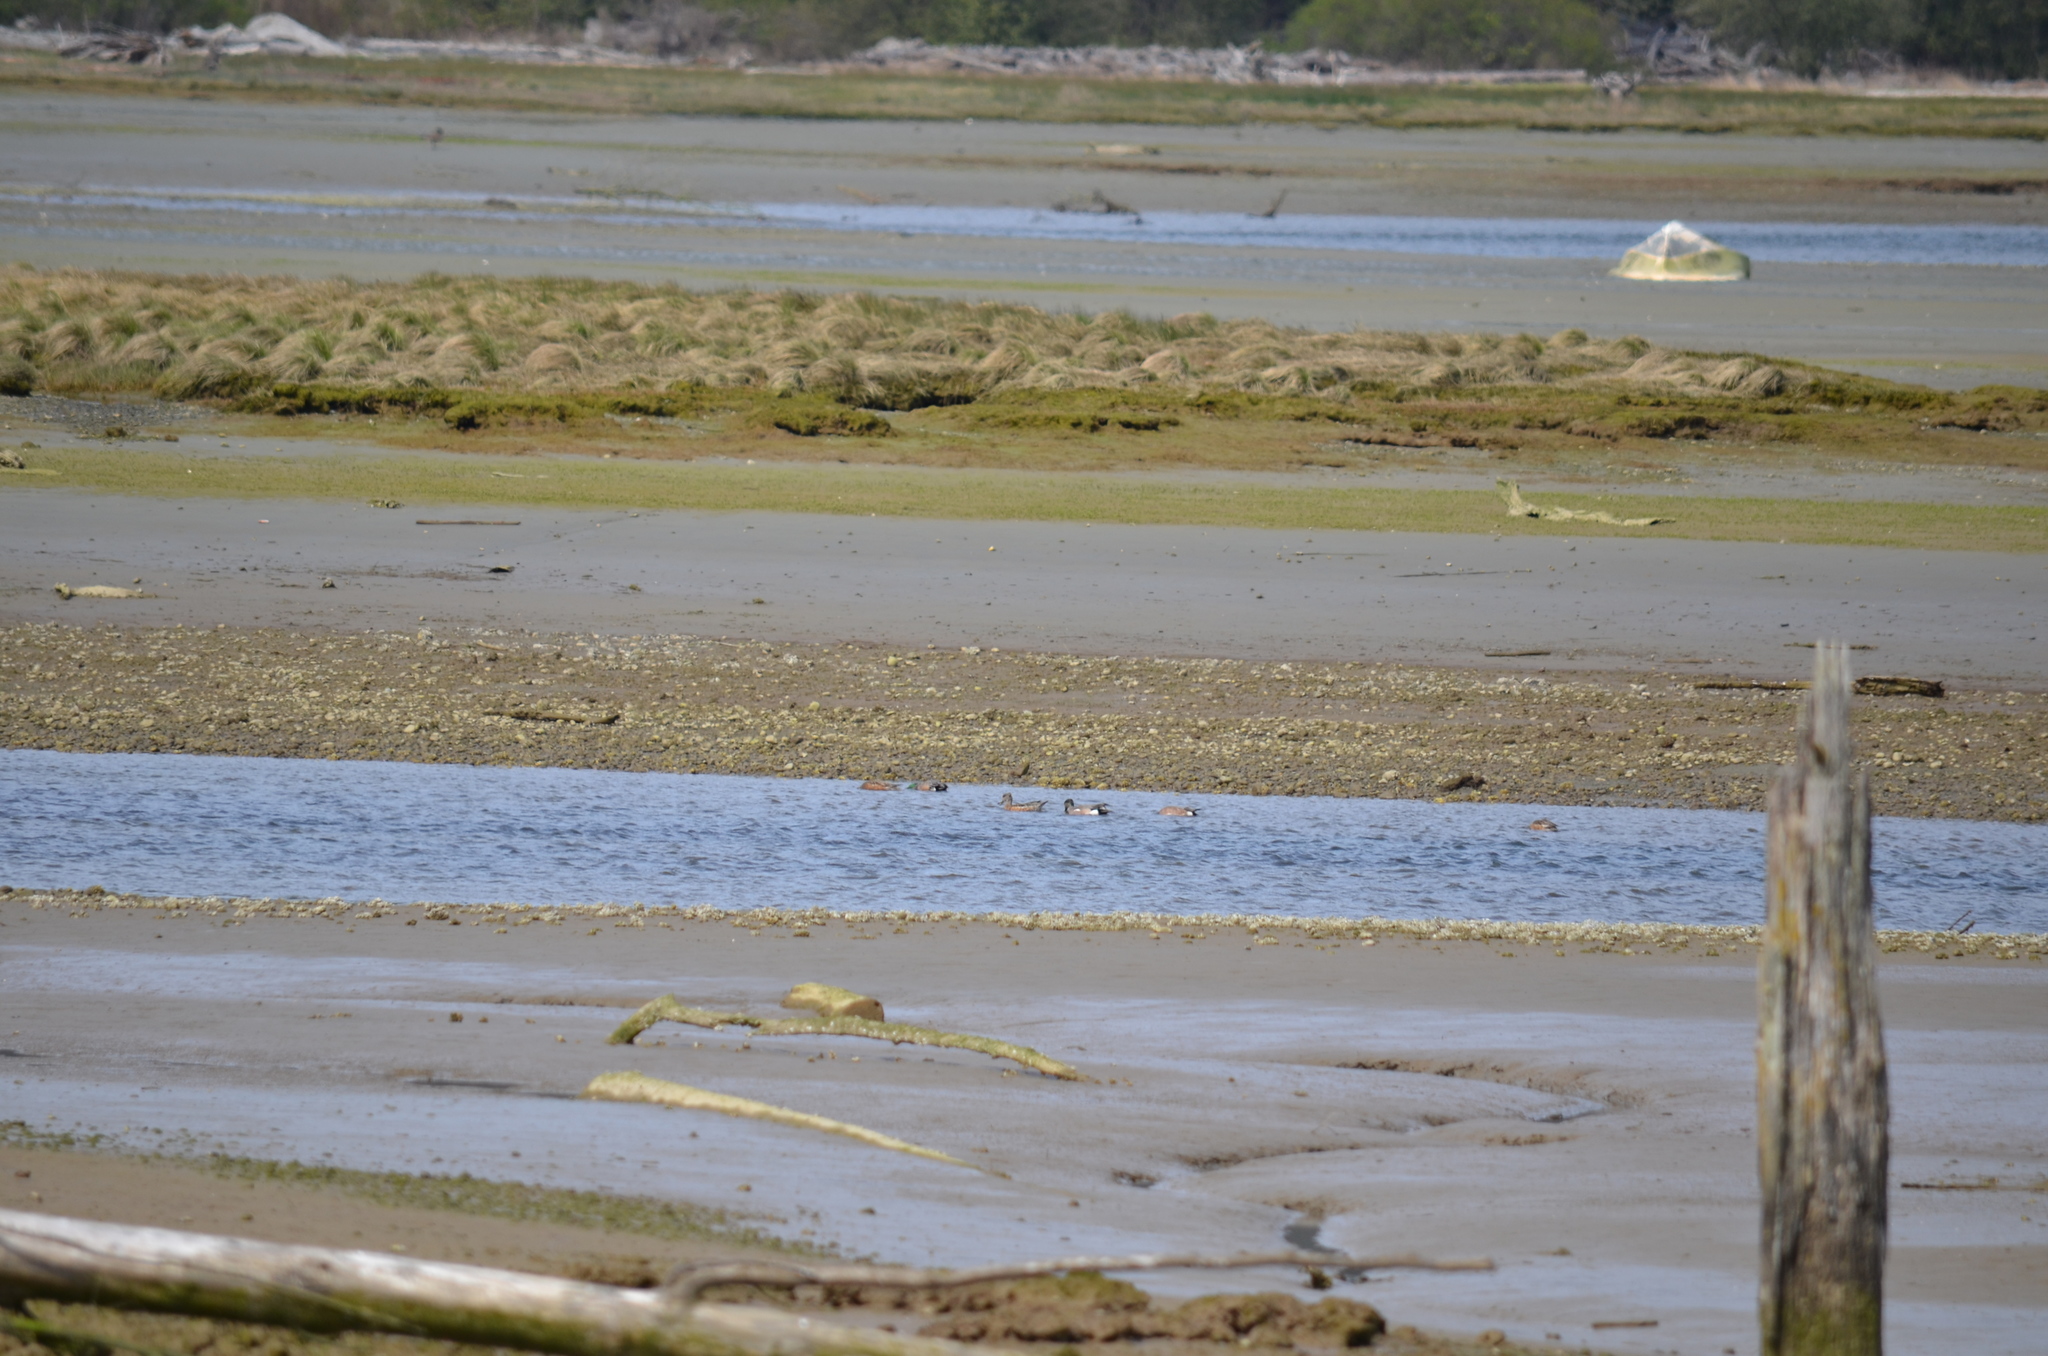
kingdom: Animalia
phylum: Chordata
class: Aves
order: Anseriformes
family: Anatidae
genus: Mareca
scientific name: Mareca americana
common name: American wigeon
